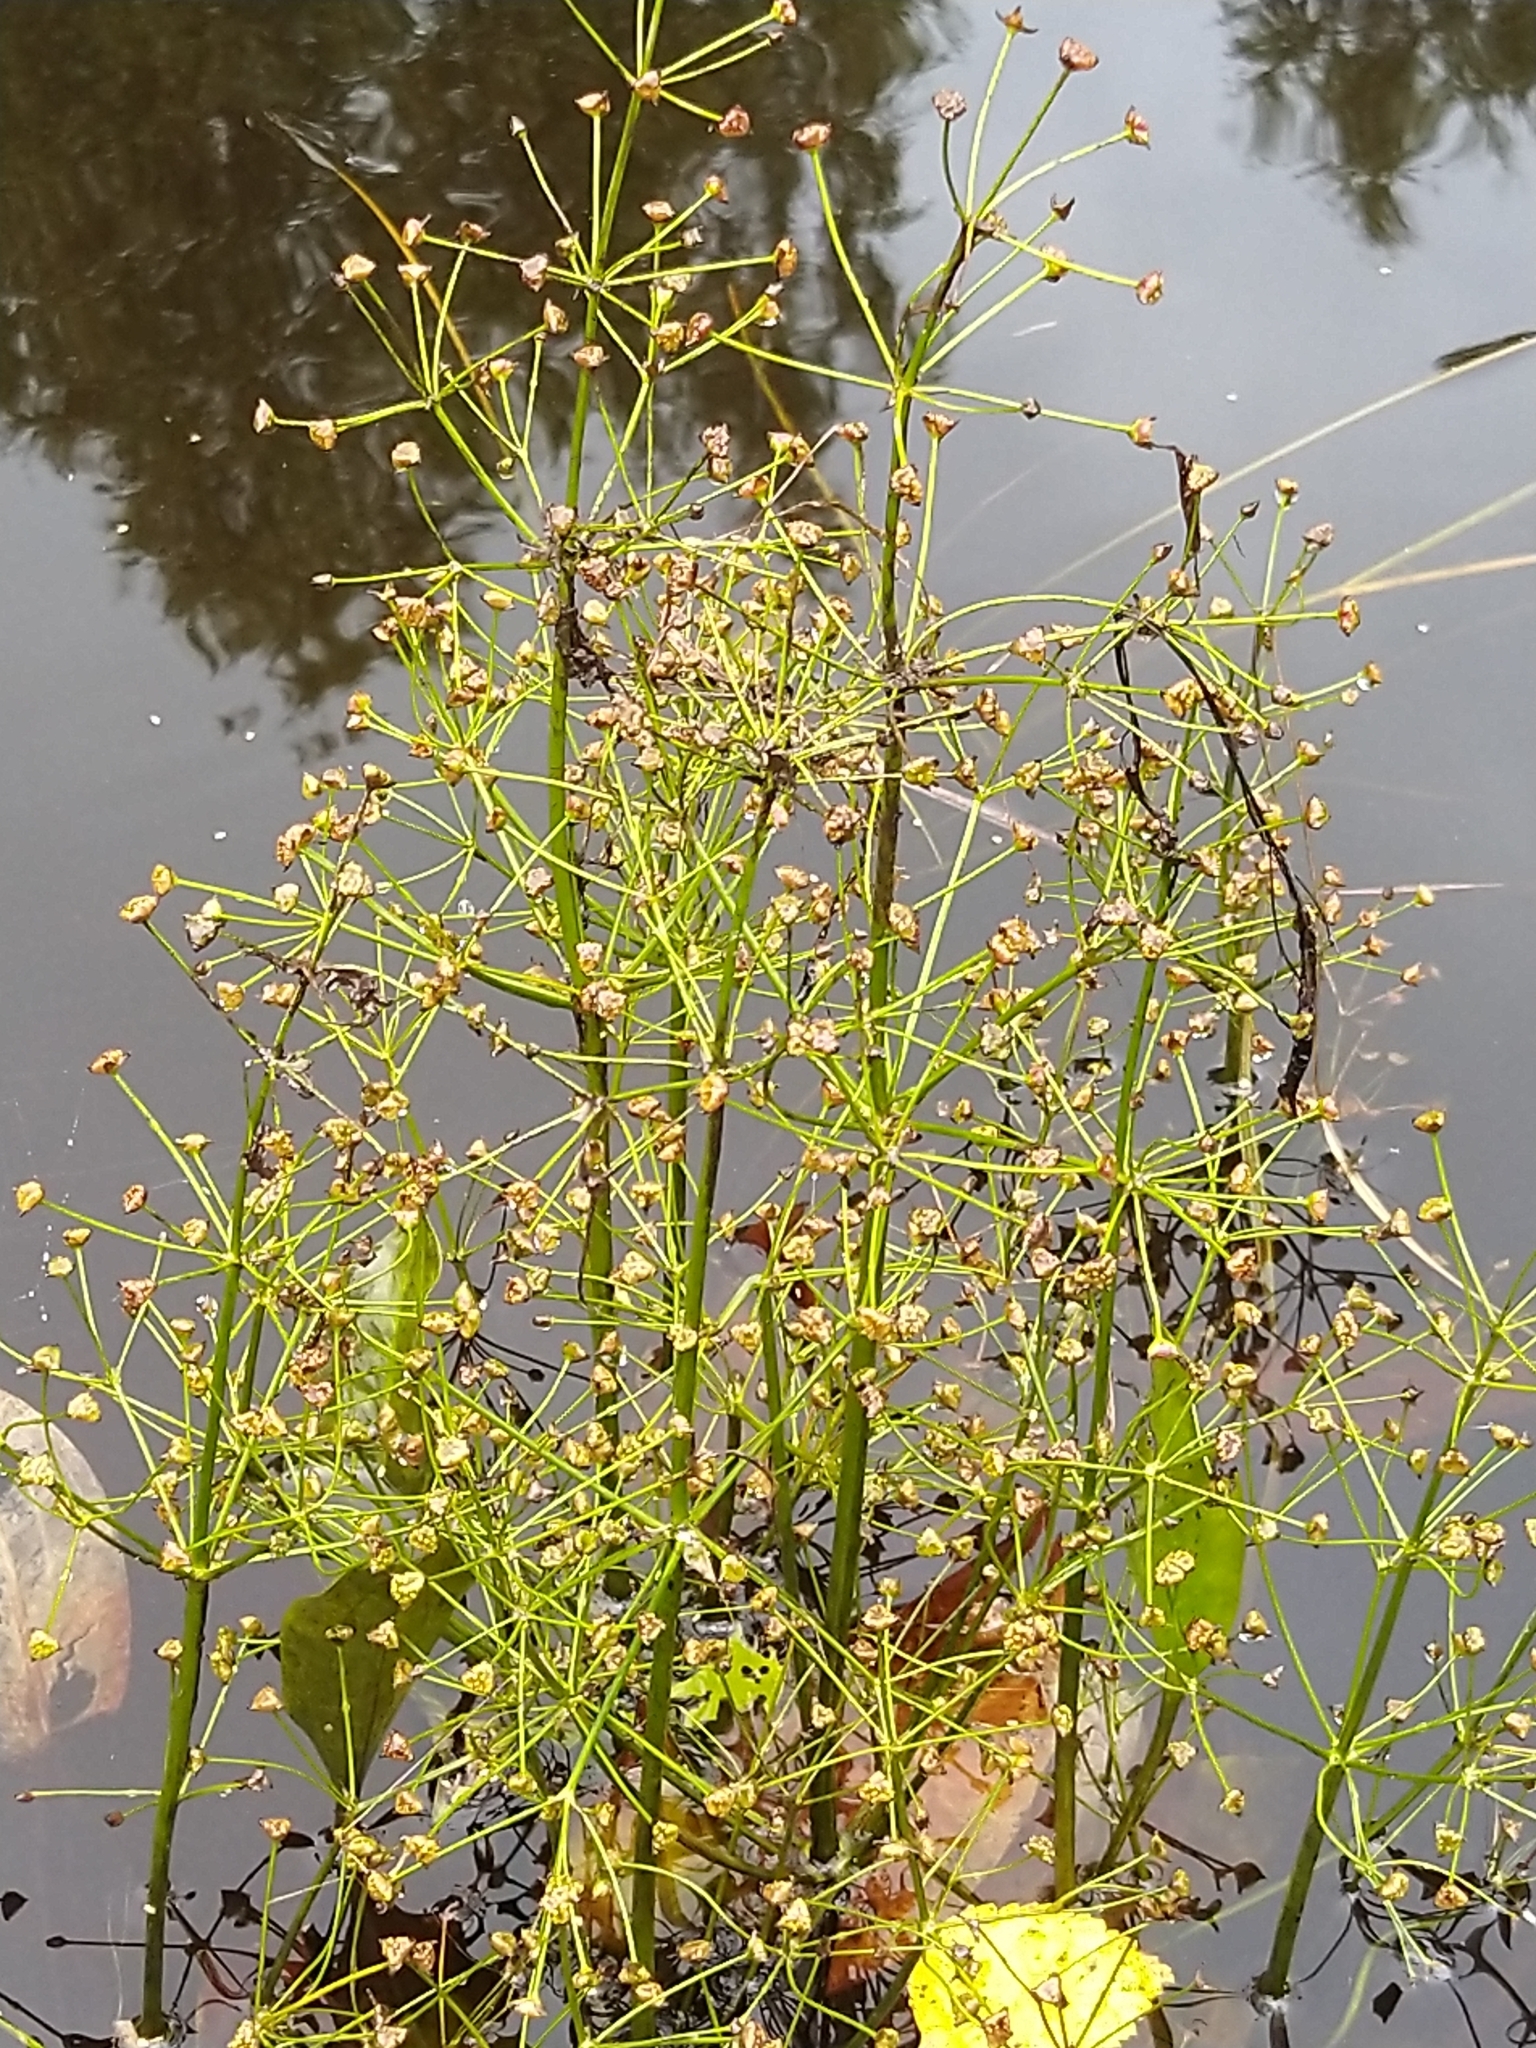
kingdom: Plantae
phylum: Tracheophyta
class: Liliopsida
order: Alismatales
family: Alismataceae
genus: Alisma
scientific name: Alisma plantago-aquatica
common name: Water-plantain
